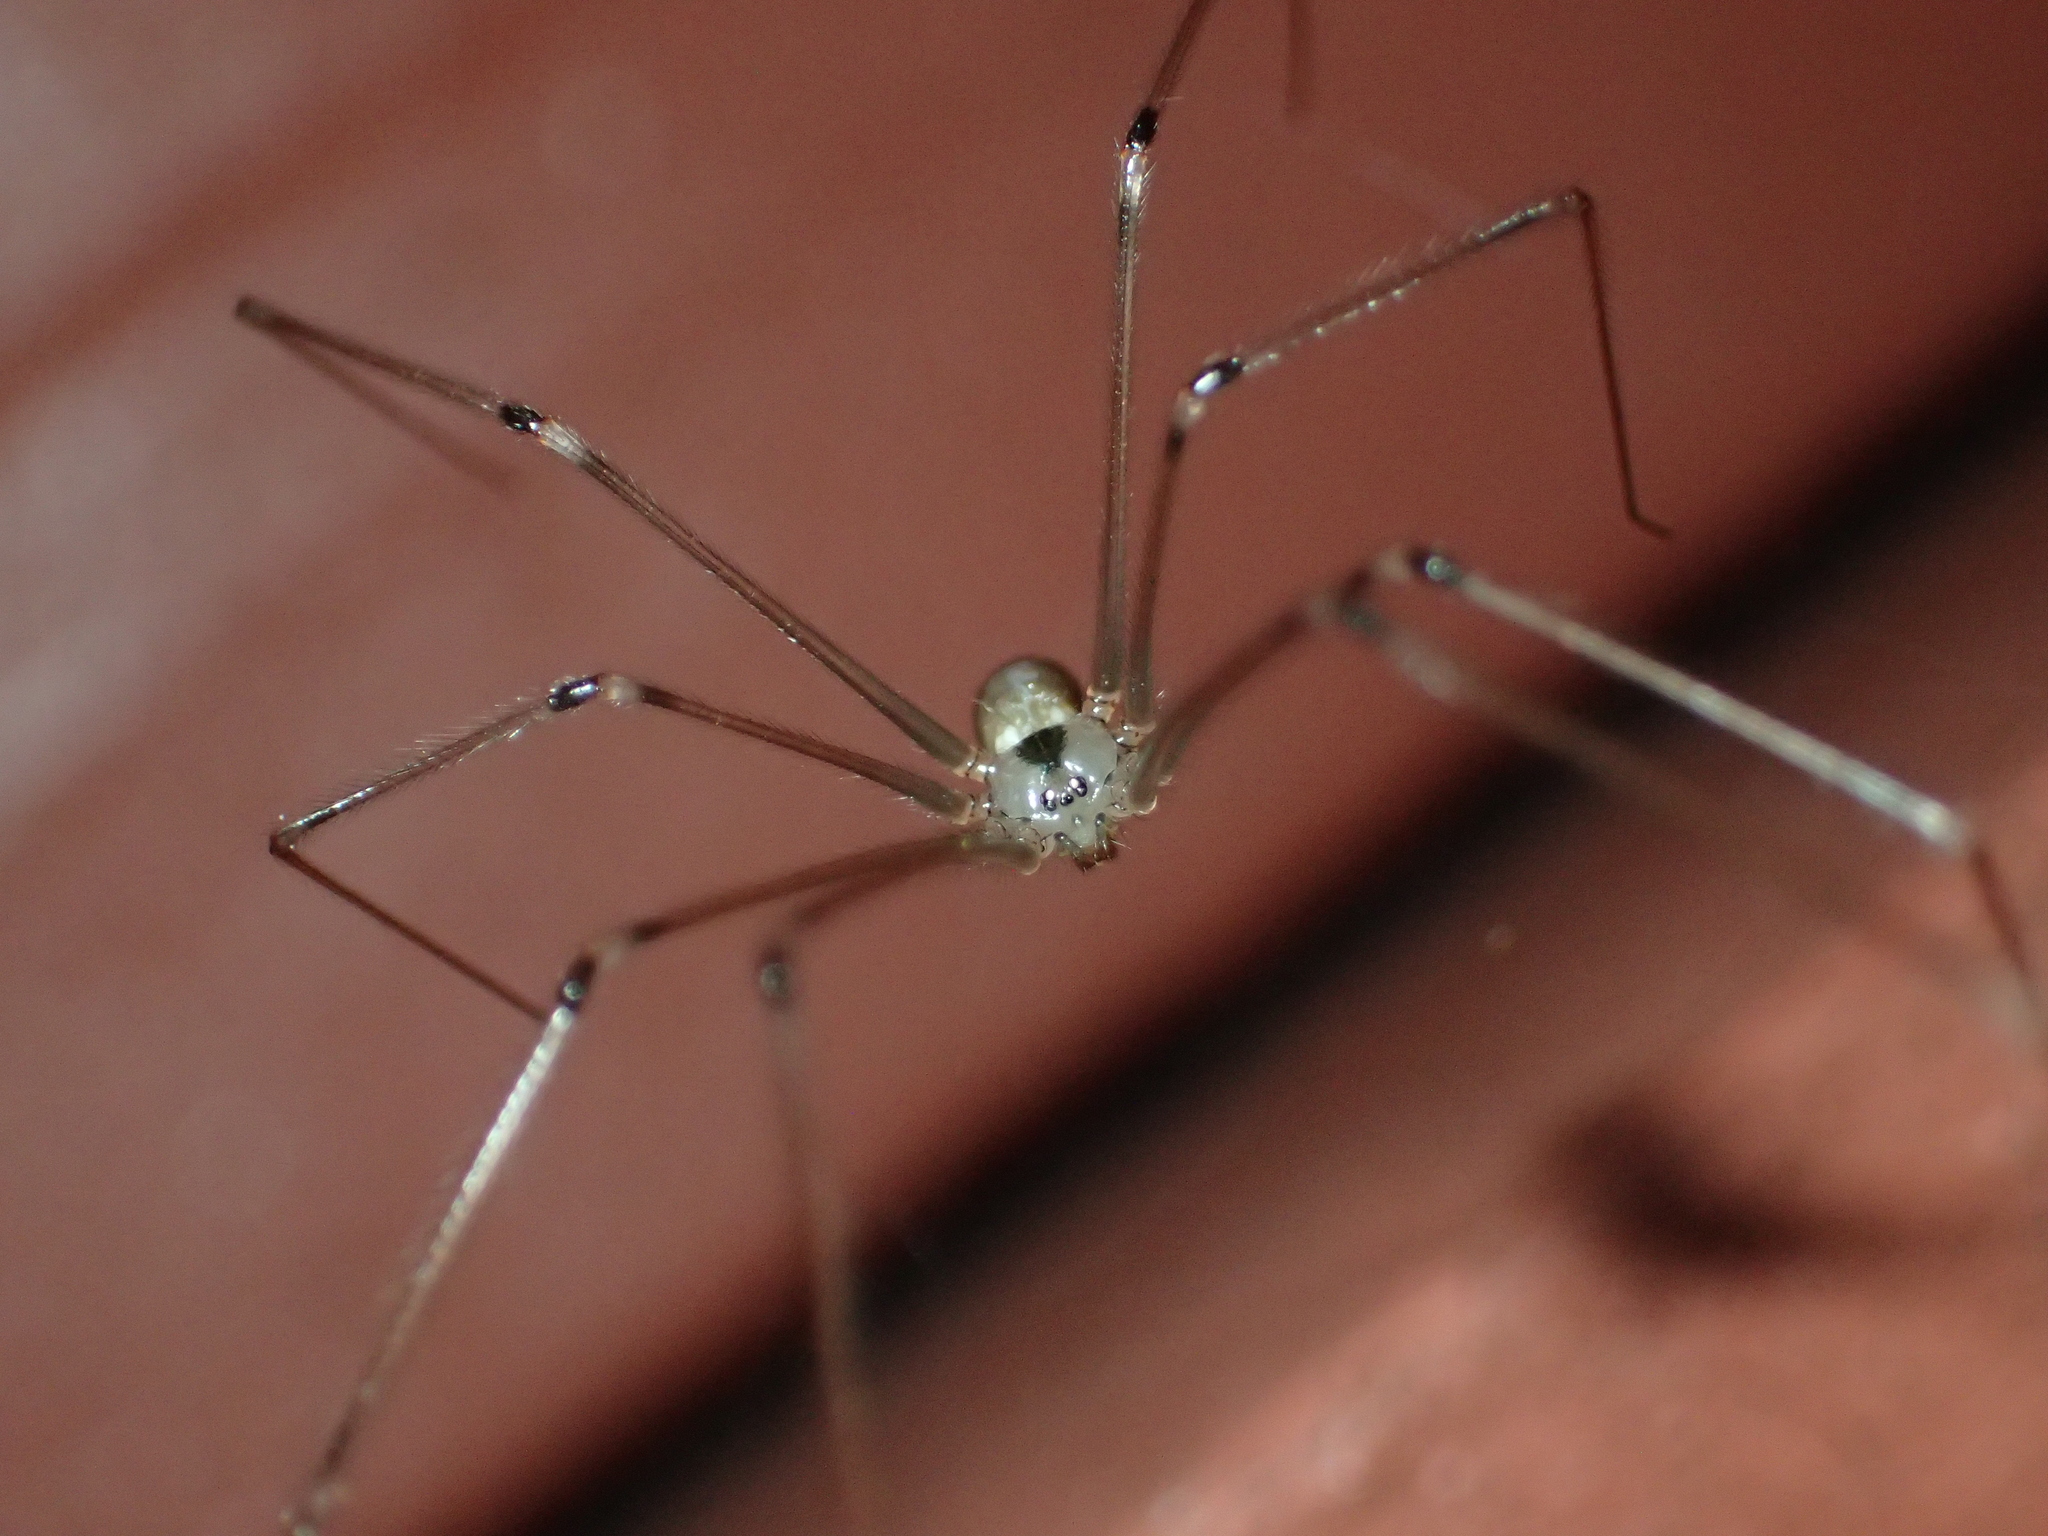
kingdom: Animalia
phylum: Arthropoda
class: Arachnida
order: Araneae
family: Pholcidae
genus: Pholcus
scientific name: Pholcus phalangioides
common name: Longbodied cellar spider
